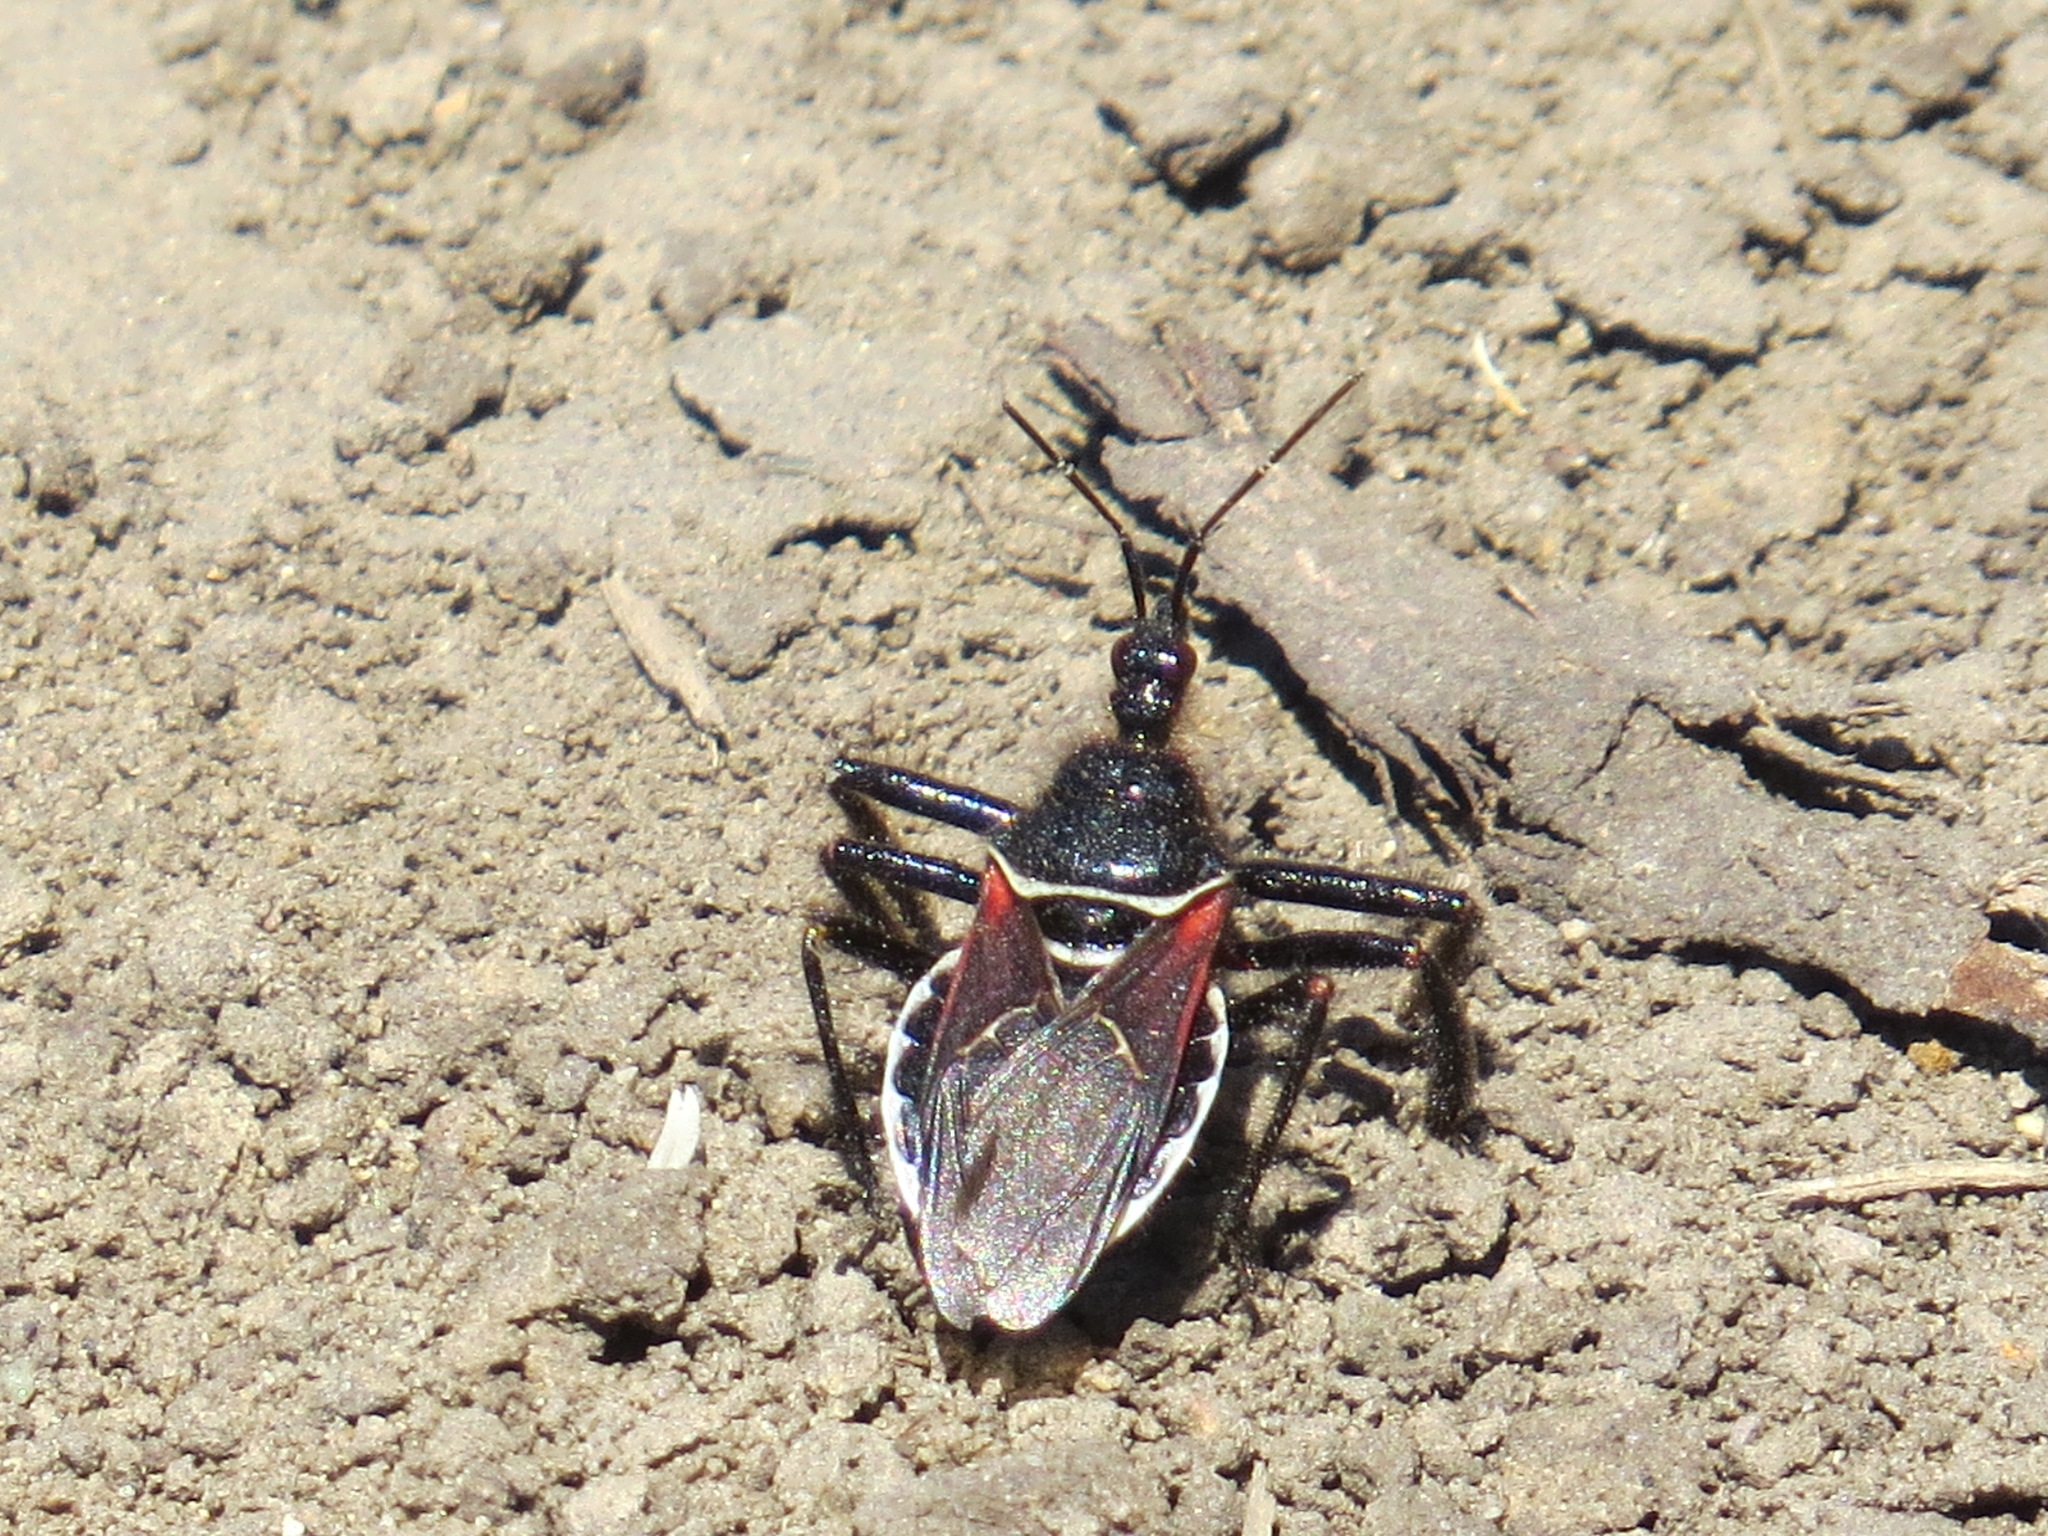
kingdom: Animalia
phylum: Arthropoda
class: Insecta
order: Hemiptera
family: Reduviidae
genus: Apiomerus
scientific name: Apiomerus californicus
